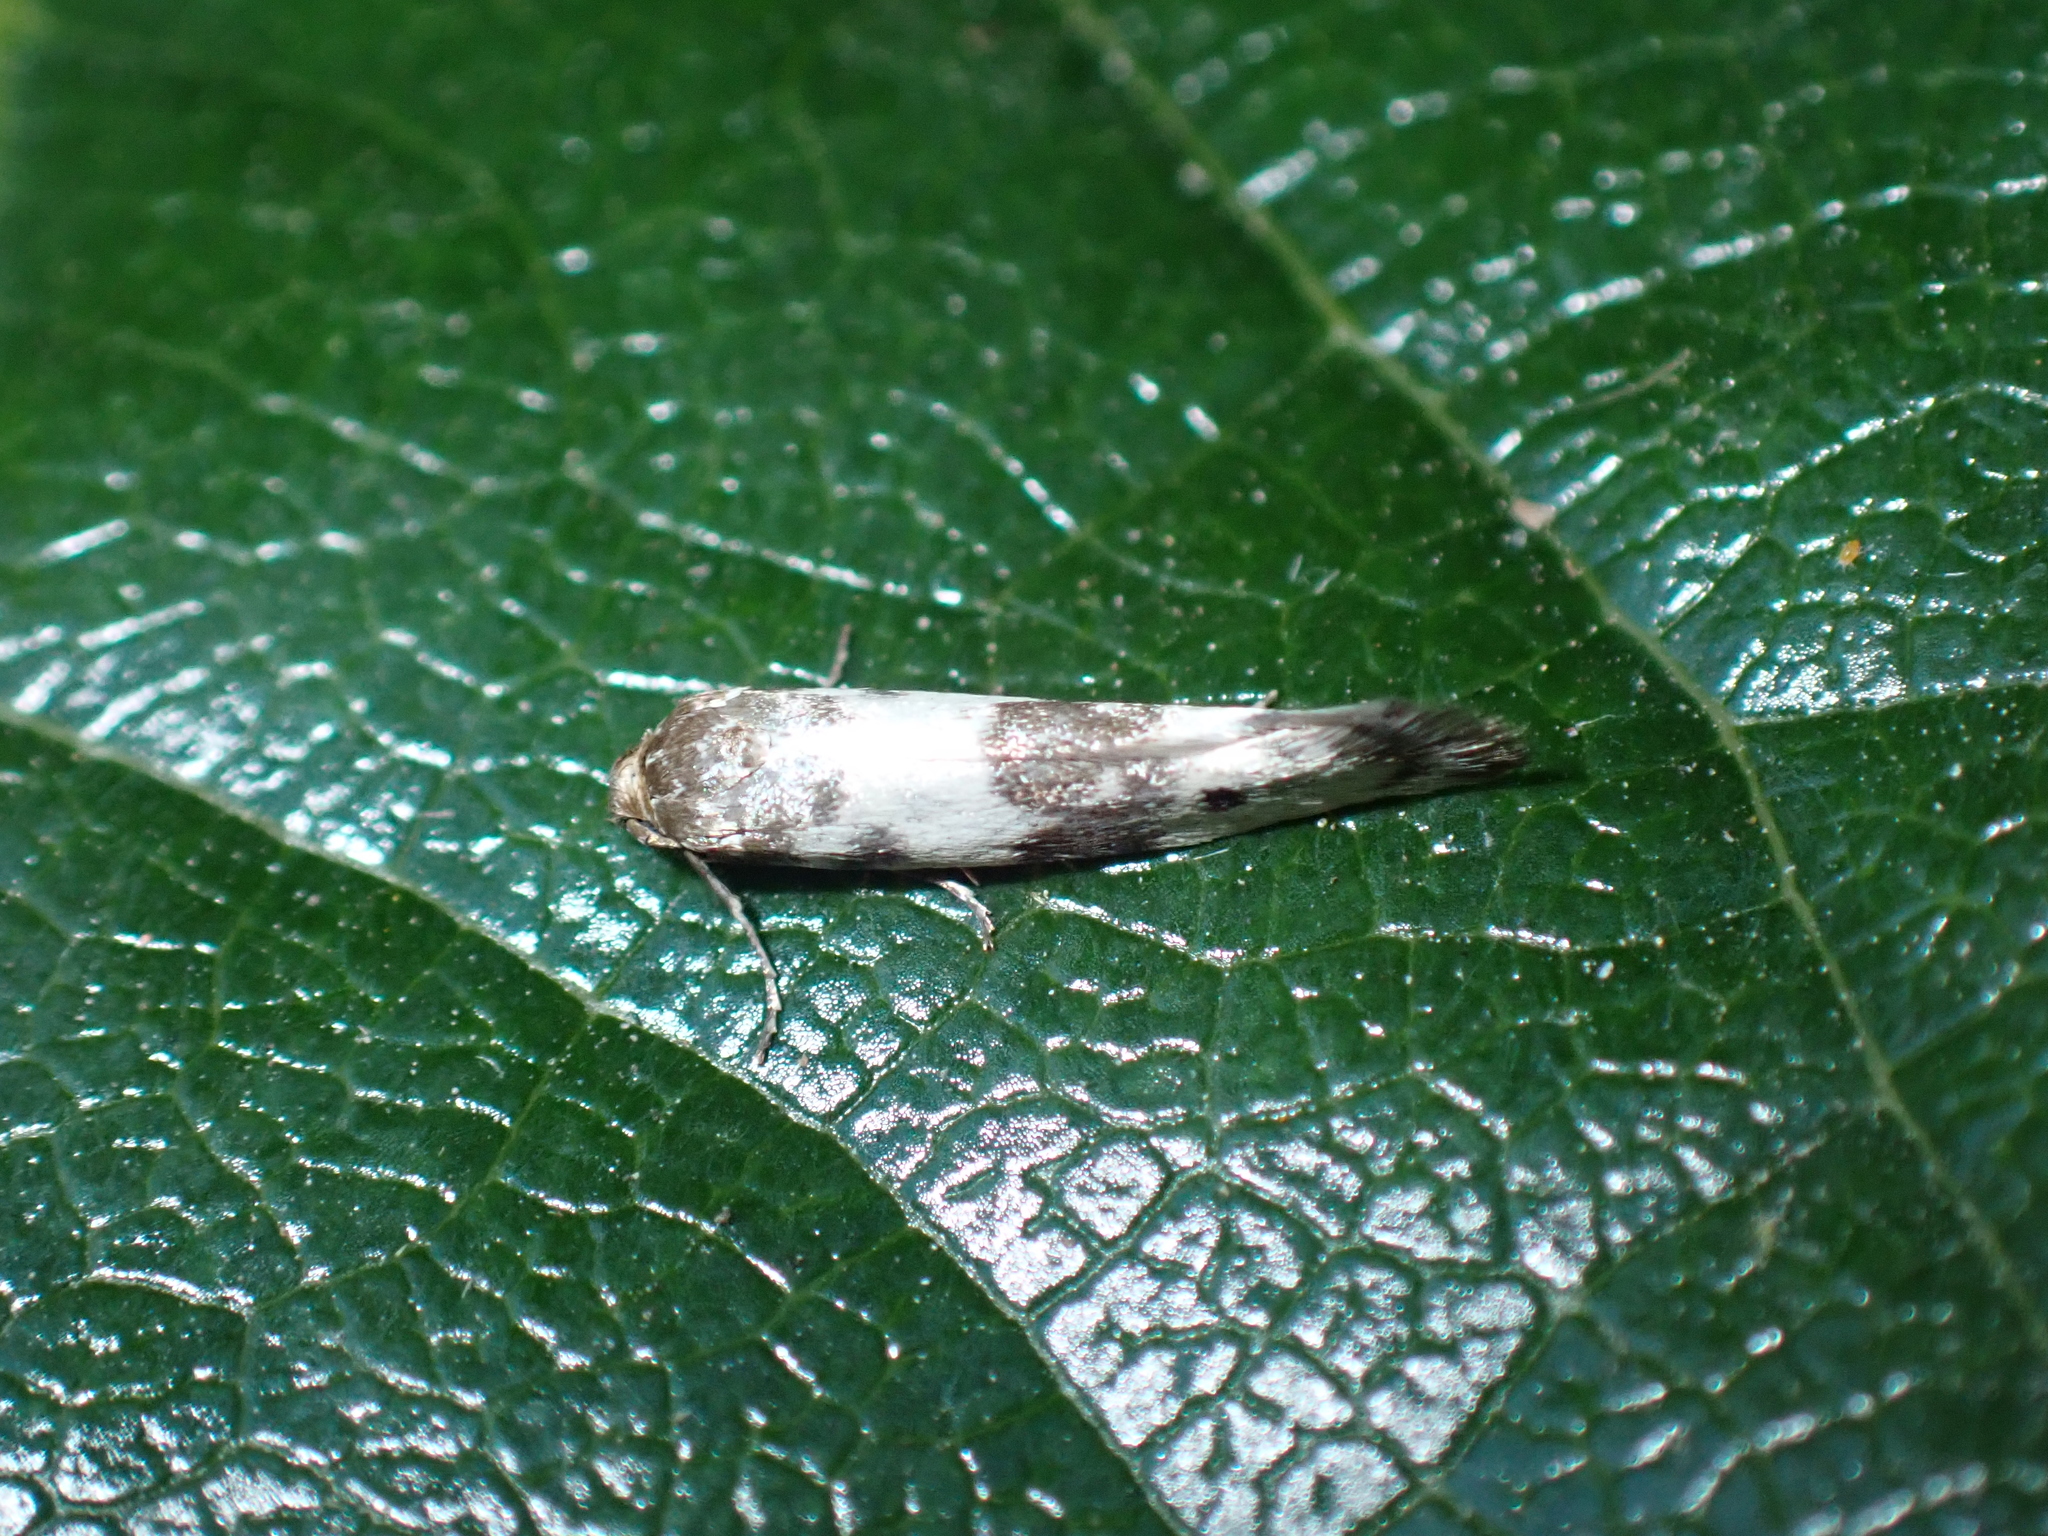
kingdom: Animalia
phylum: Arthropoda
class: Insecta
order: Lepidoptera
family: Scythrididae
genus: Enolmis
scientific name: Enolmis acanthella
